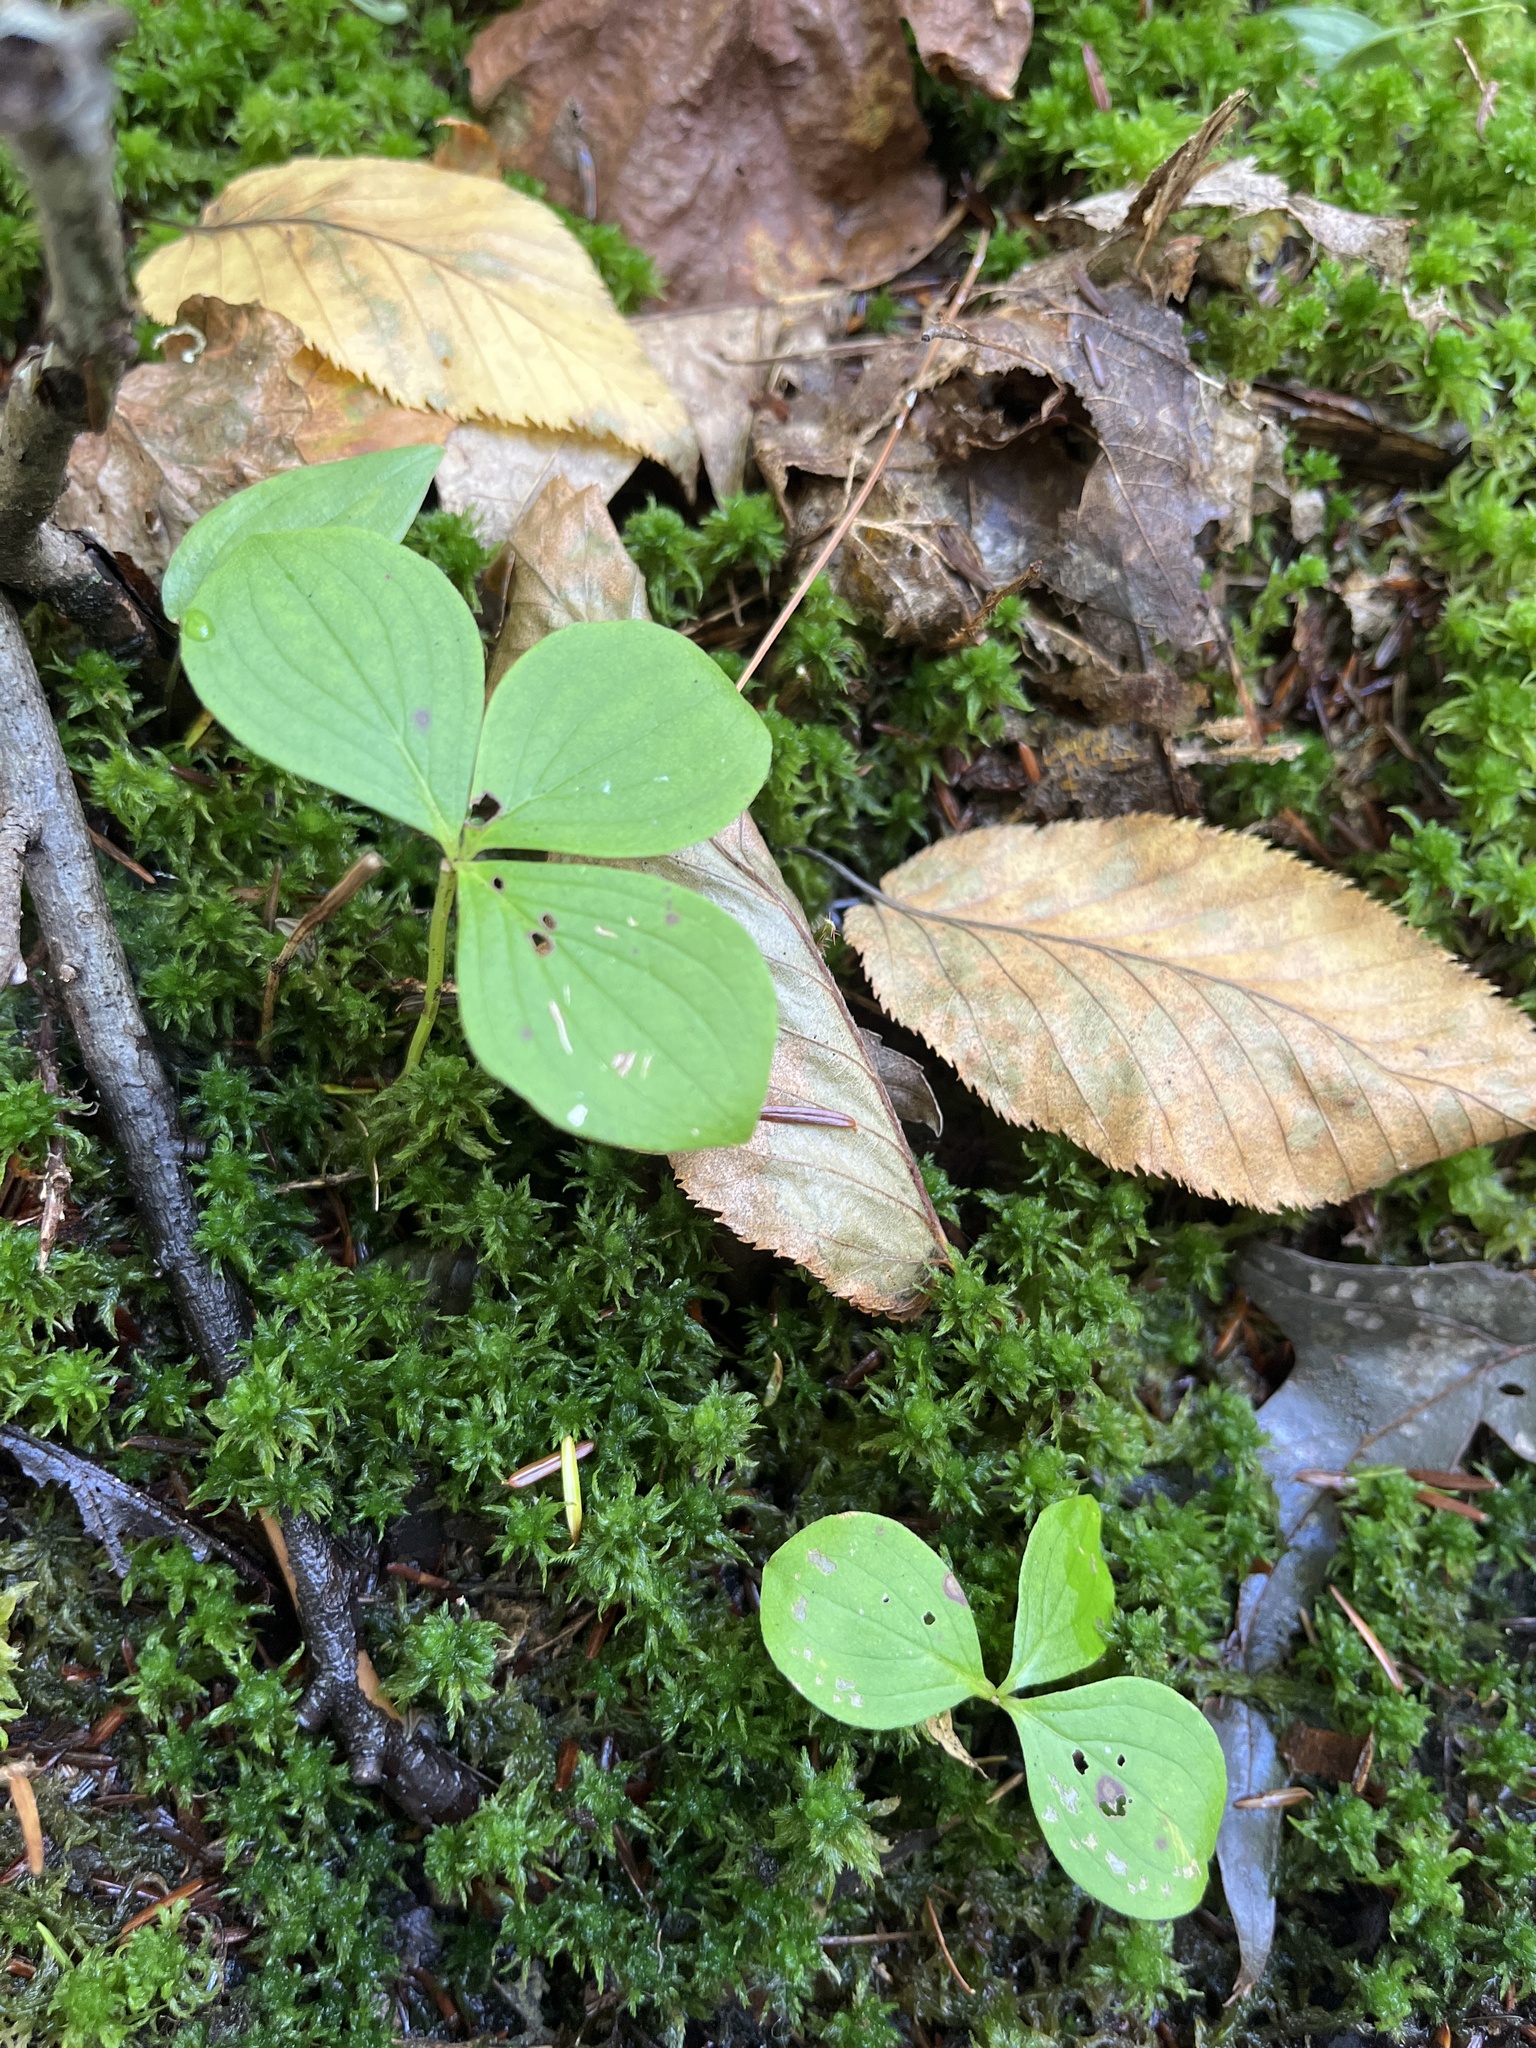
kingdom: Plantae
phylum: Tracheophyta
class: Magnoliopsida
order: Cornales
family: Cornaceae
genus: Cornus
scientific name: Cornus canadensis
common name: Creeping dogwood
